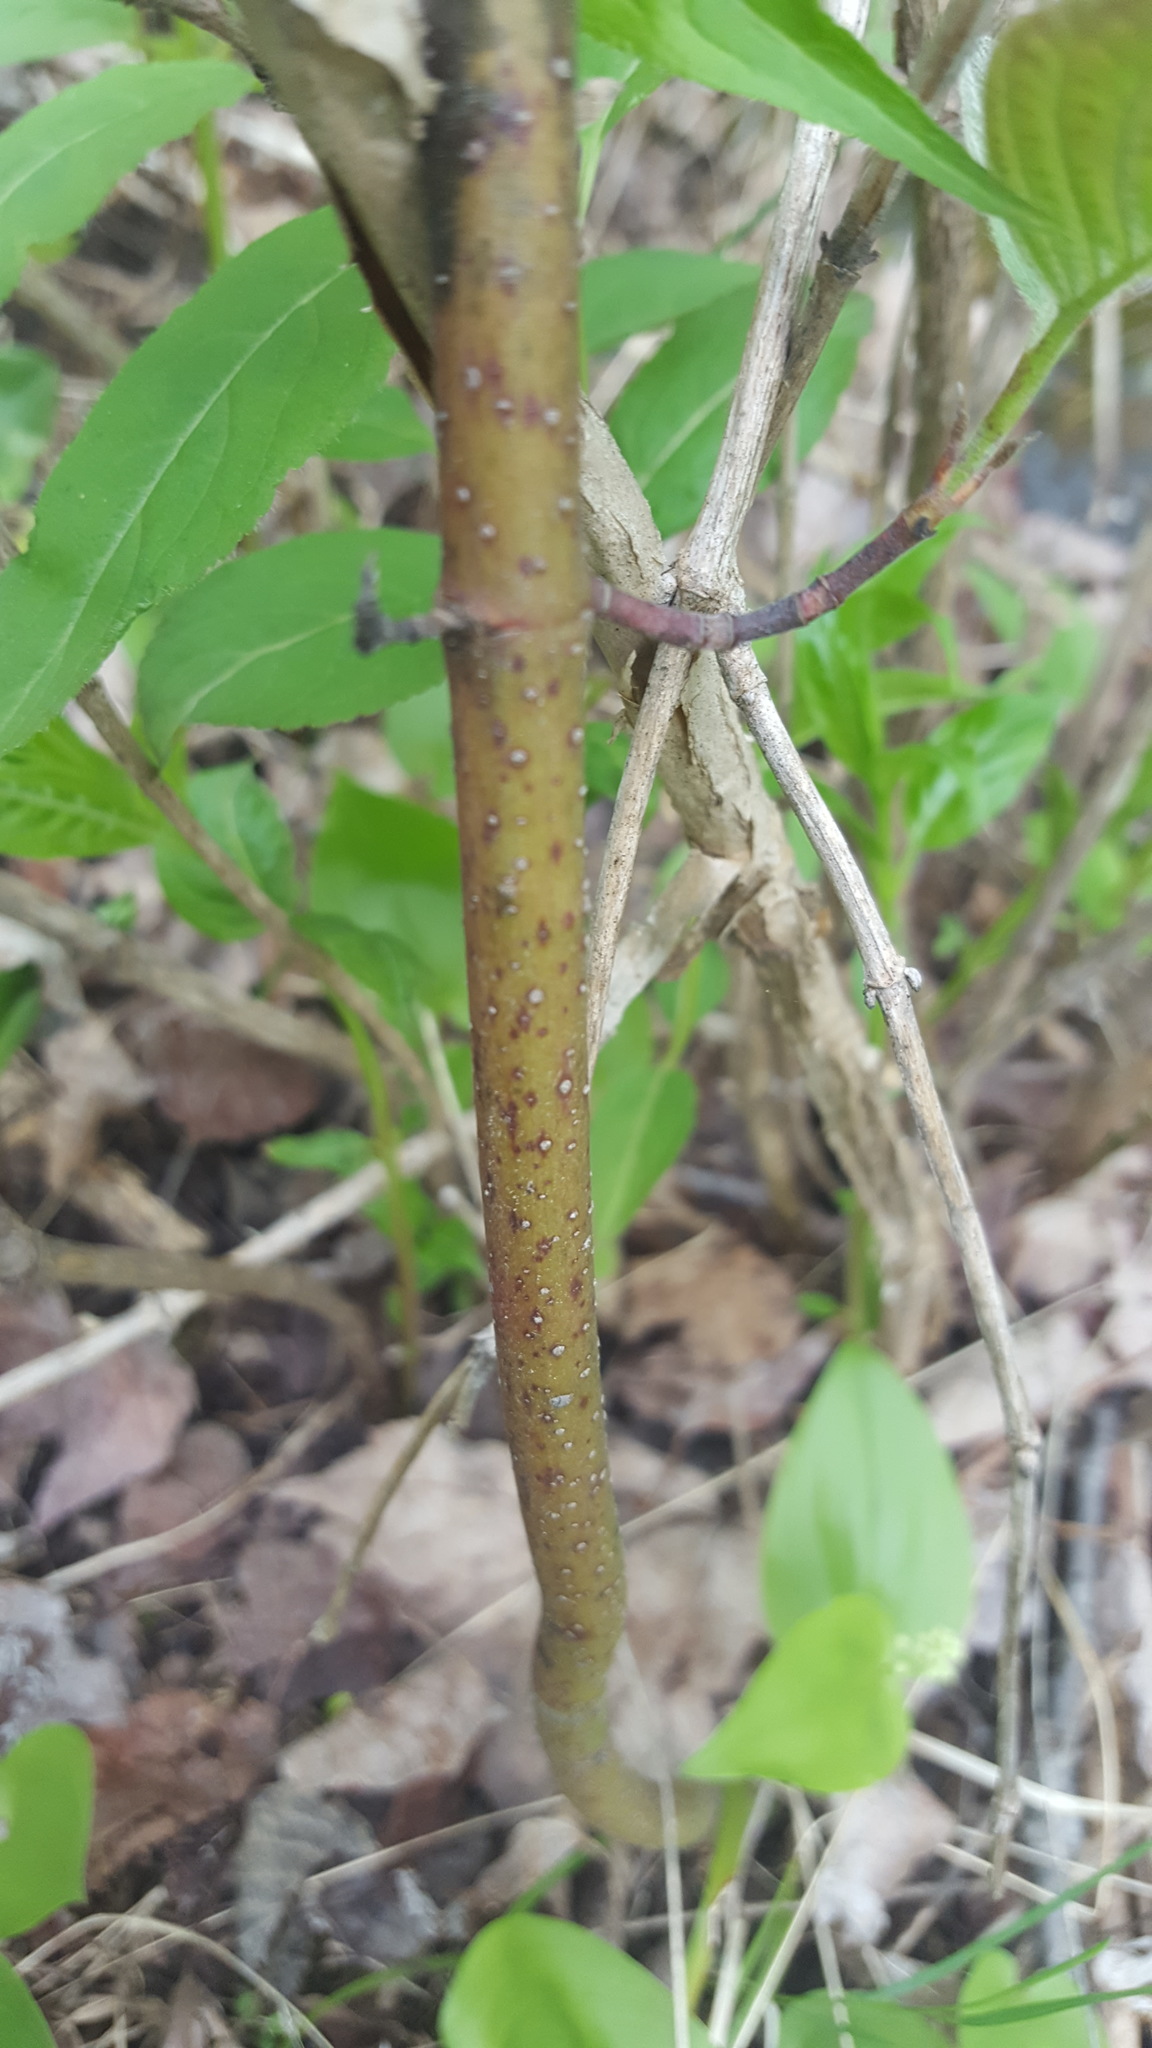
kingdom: Plantae
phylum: Tracheophyta
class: Magnoliopsida
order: Cornales
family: Cornaceae
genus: Cornus
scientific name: Cornus rugosa
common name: Round-leaf dogwood
